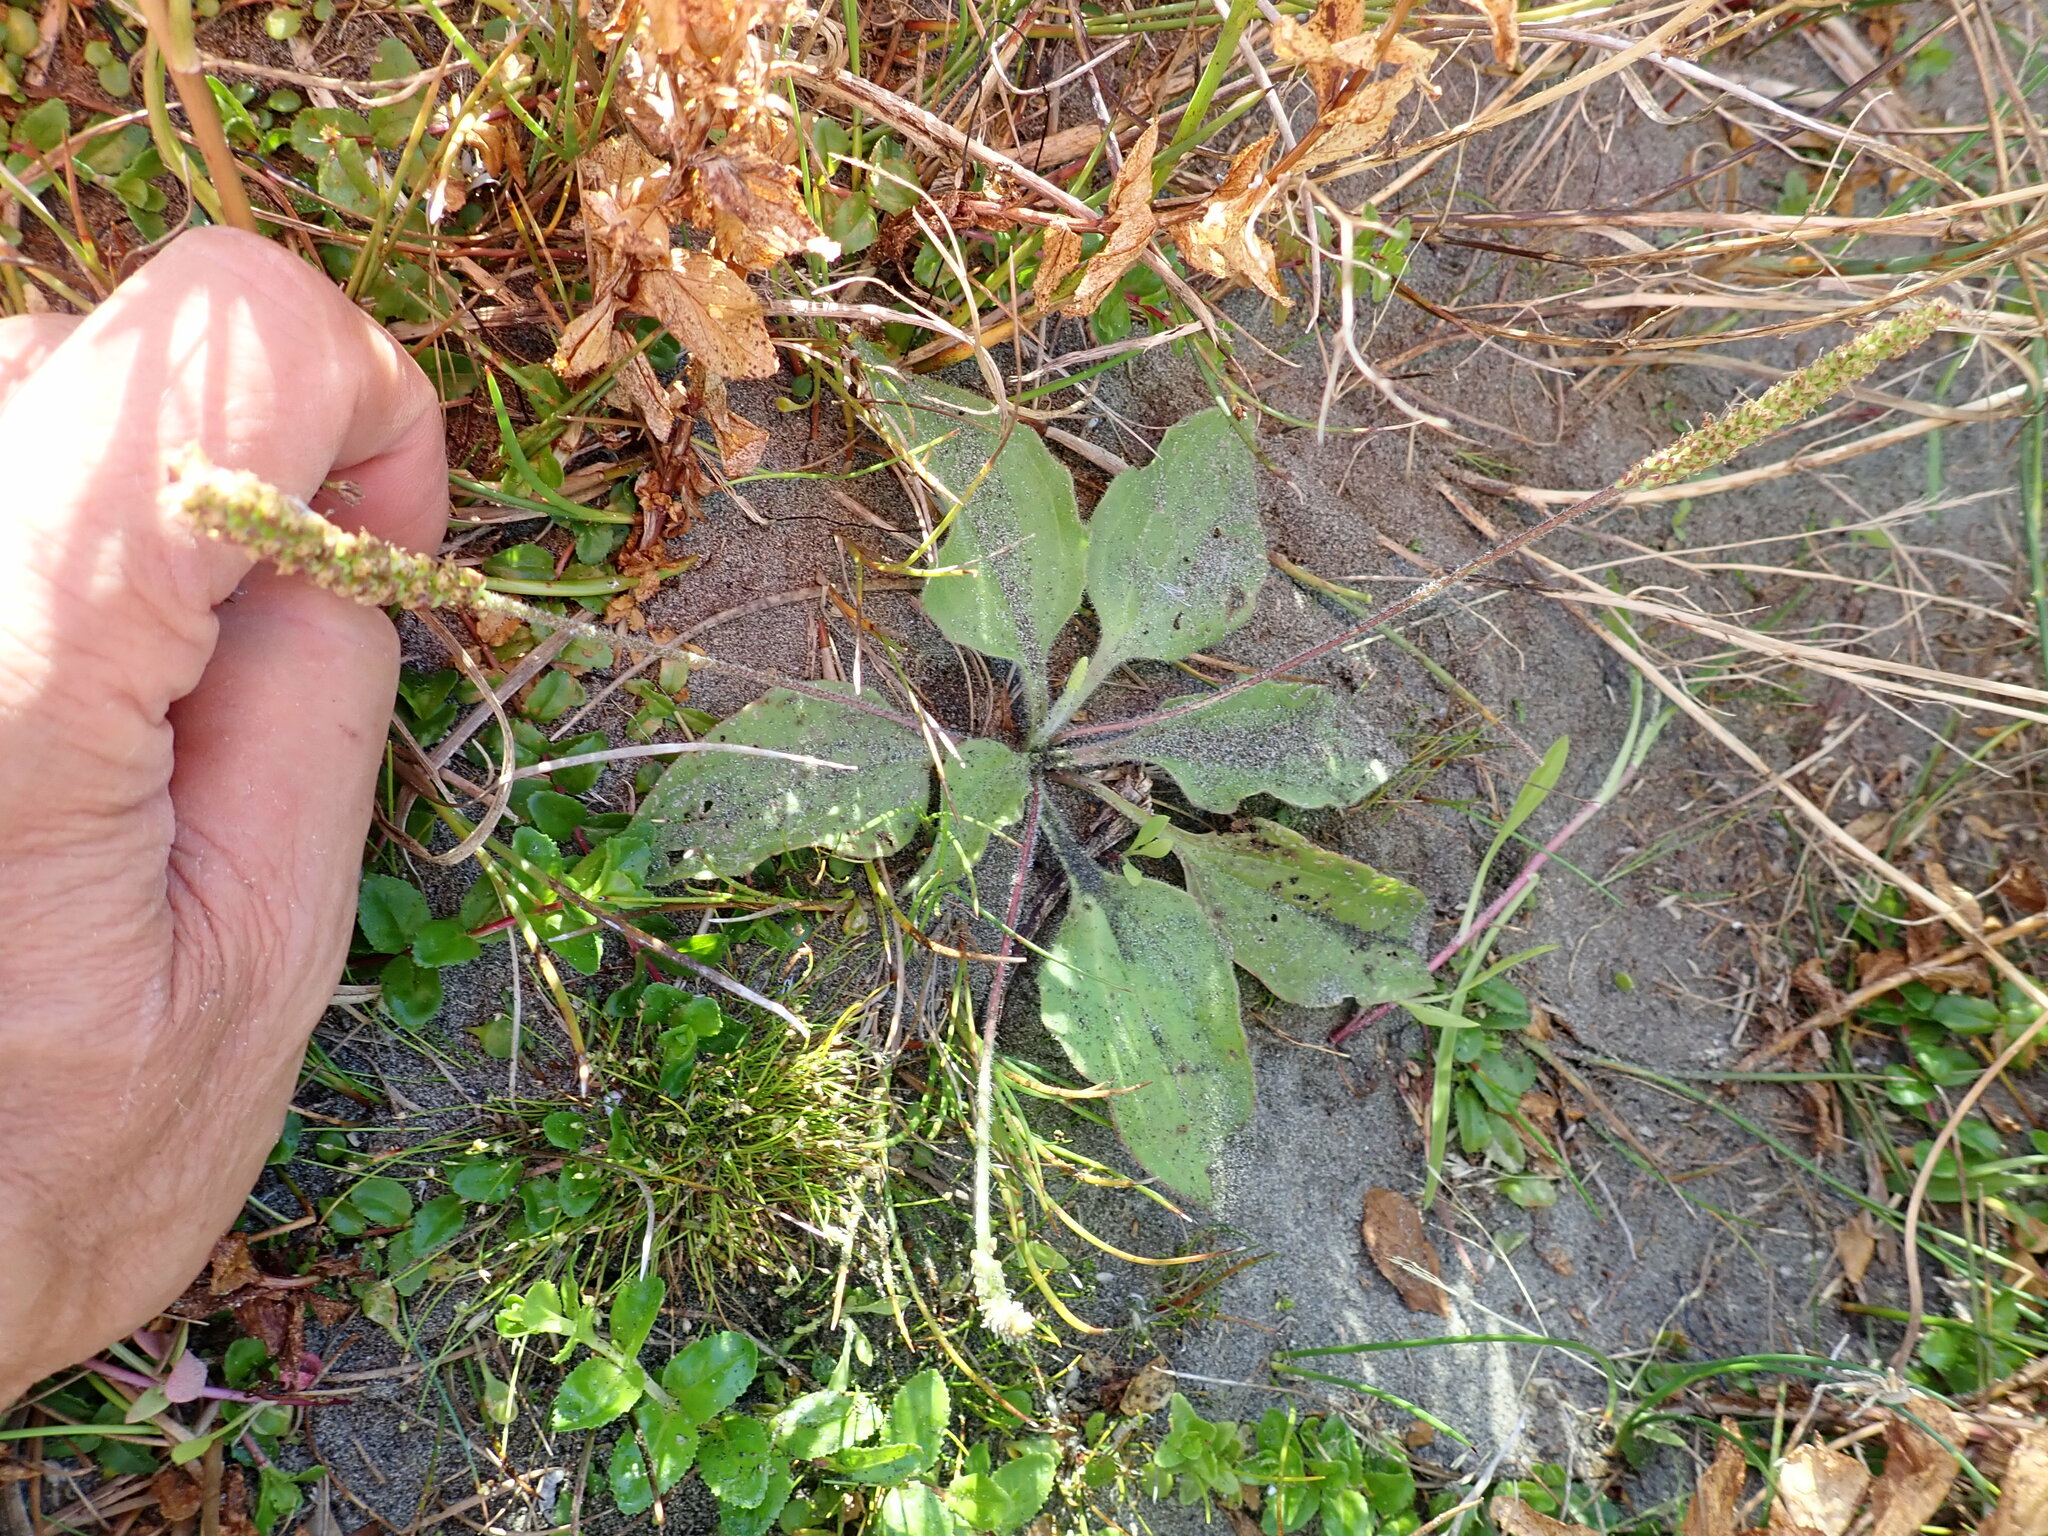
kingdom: Plantae
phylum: Tracheophyta
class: Magnoliopsida
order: Lamiales
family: Plantaginaceae
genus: Plantago
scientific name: Plantago major
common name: Common plantain
